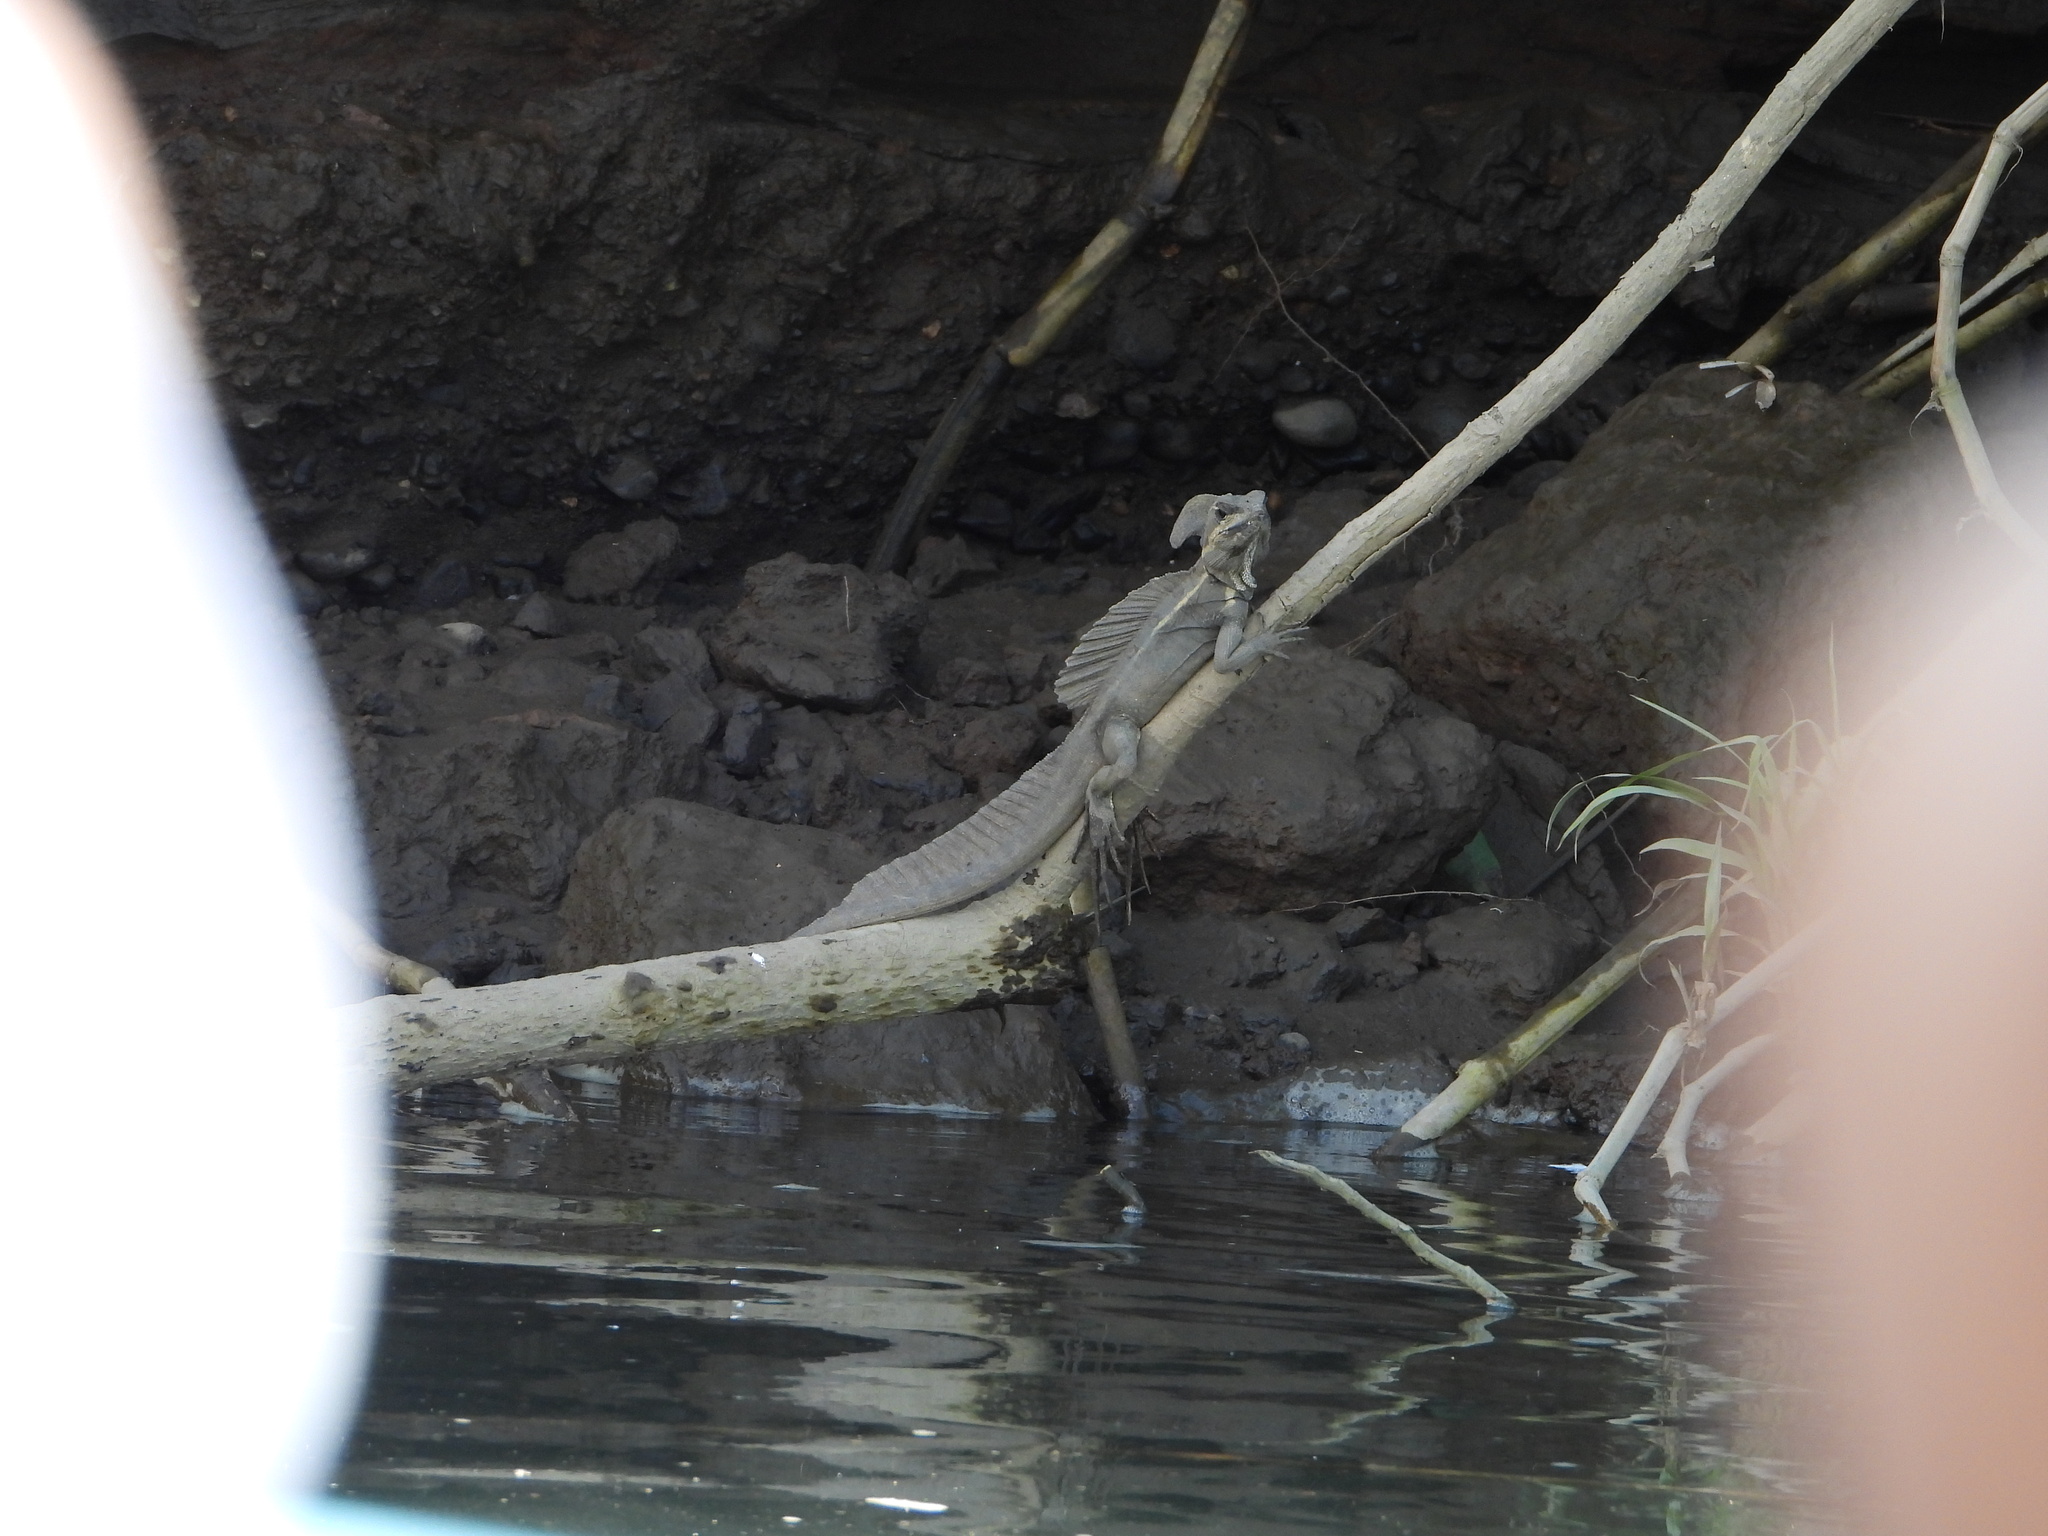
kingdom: Animalia
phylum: Chordata
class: Squamata
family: Corytophanidae
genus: Basiliscus
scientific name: Basiliscus basiliscus
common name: Common basilisk
